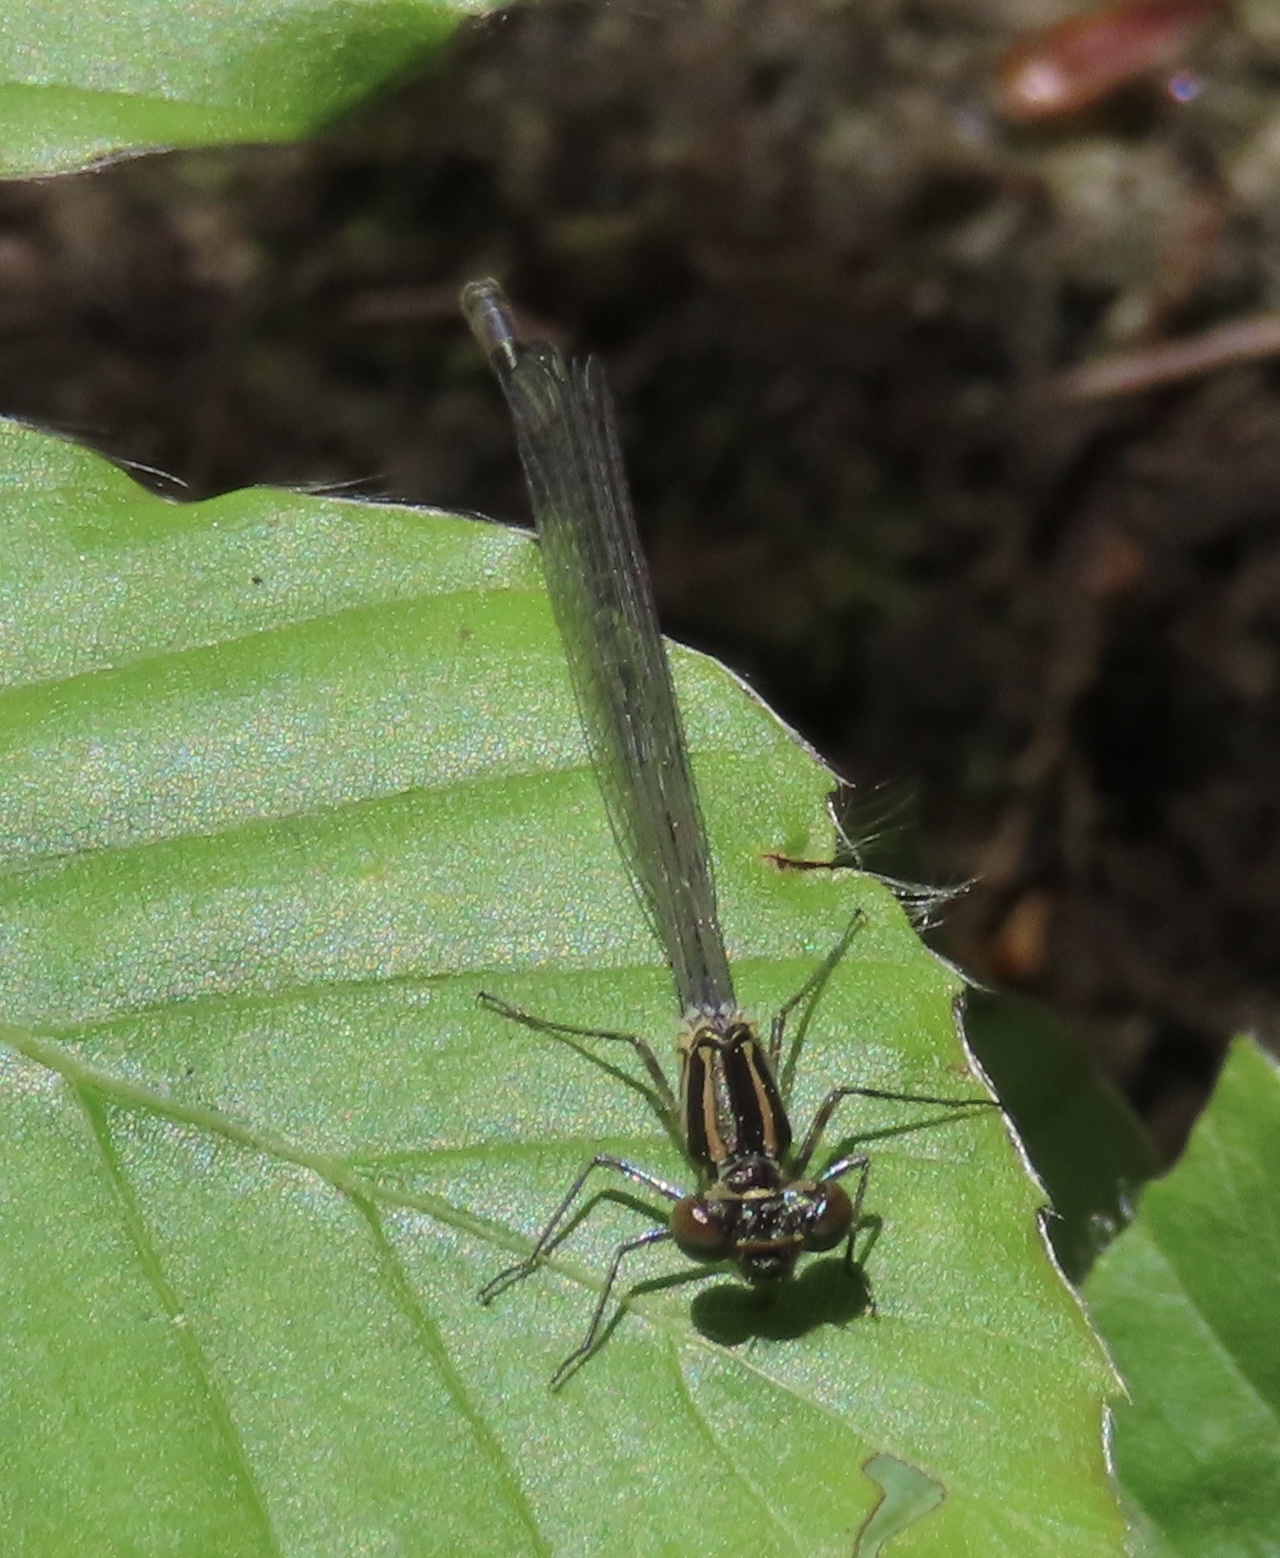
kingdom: Animalia
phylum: Arthropoda
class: Insecta
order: Odonata
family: Coenagrionidae
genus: Coenagrion
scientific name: Coenagrion puella
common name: Azure damselfly
